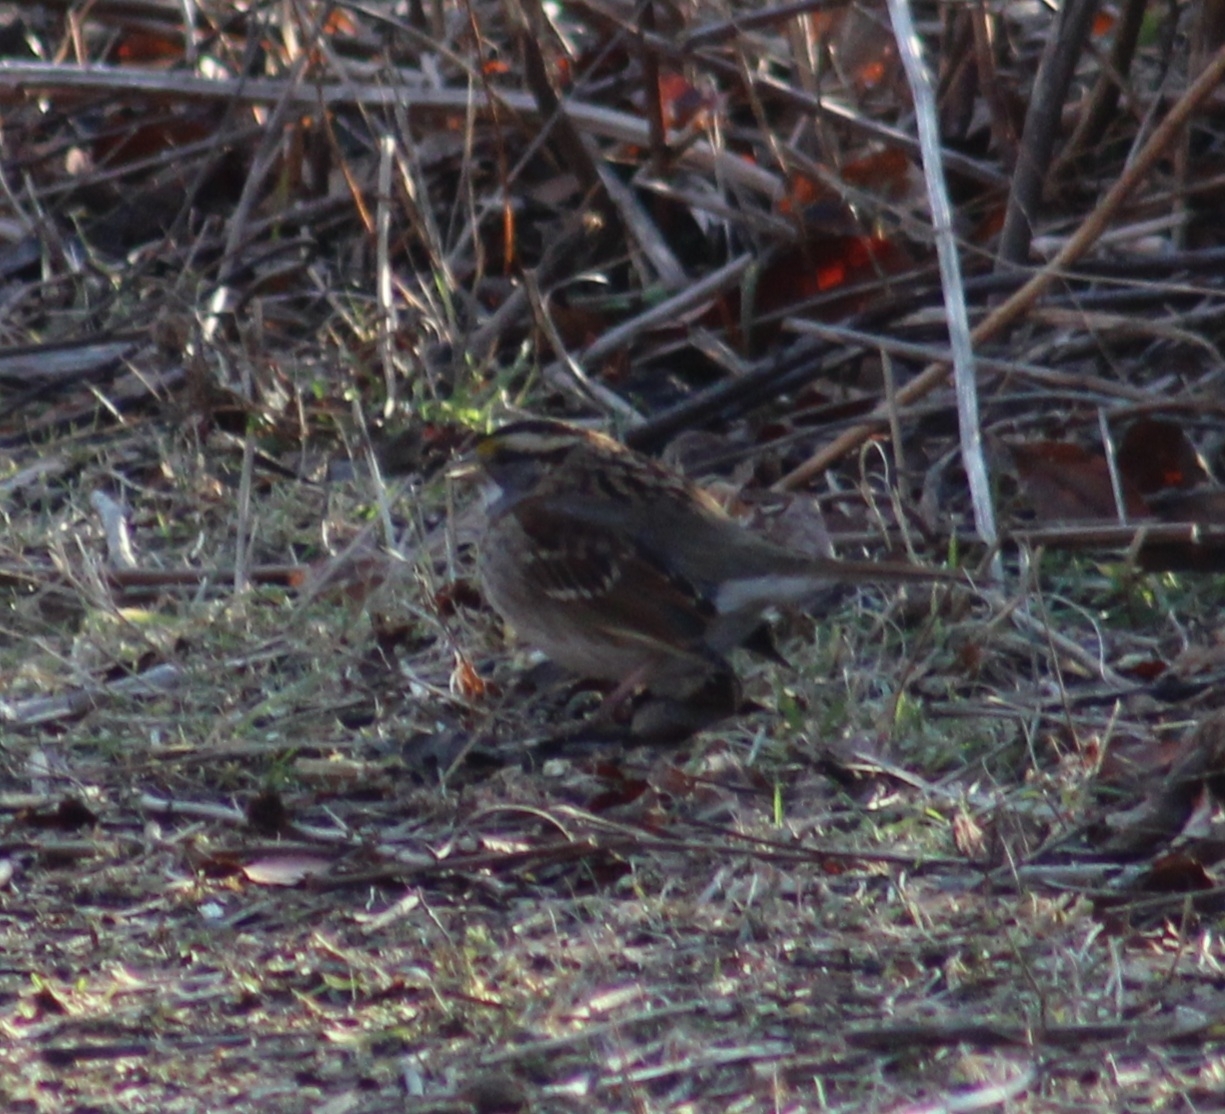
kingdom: Animalia
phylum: Chordata
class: Aves
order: Passeriformes
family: Passerellidae
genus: Zonotrichia
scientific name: Zonotrichia albicollis
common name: White-throated sparrow
